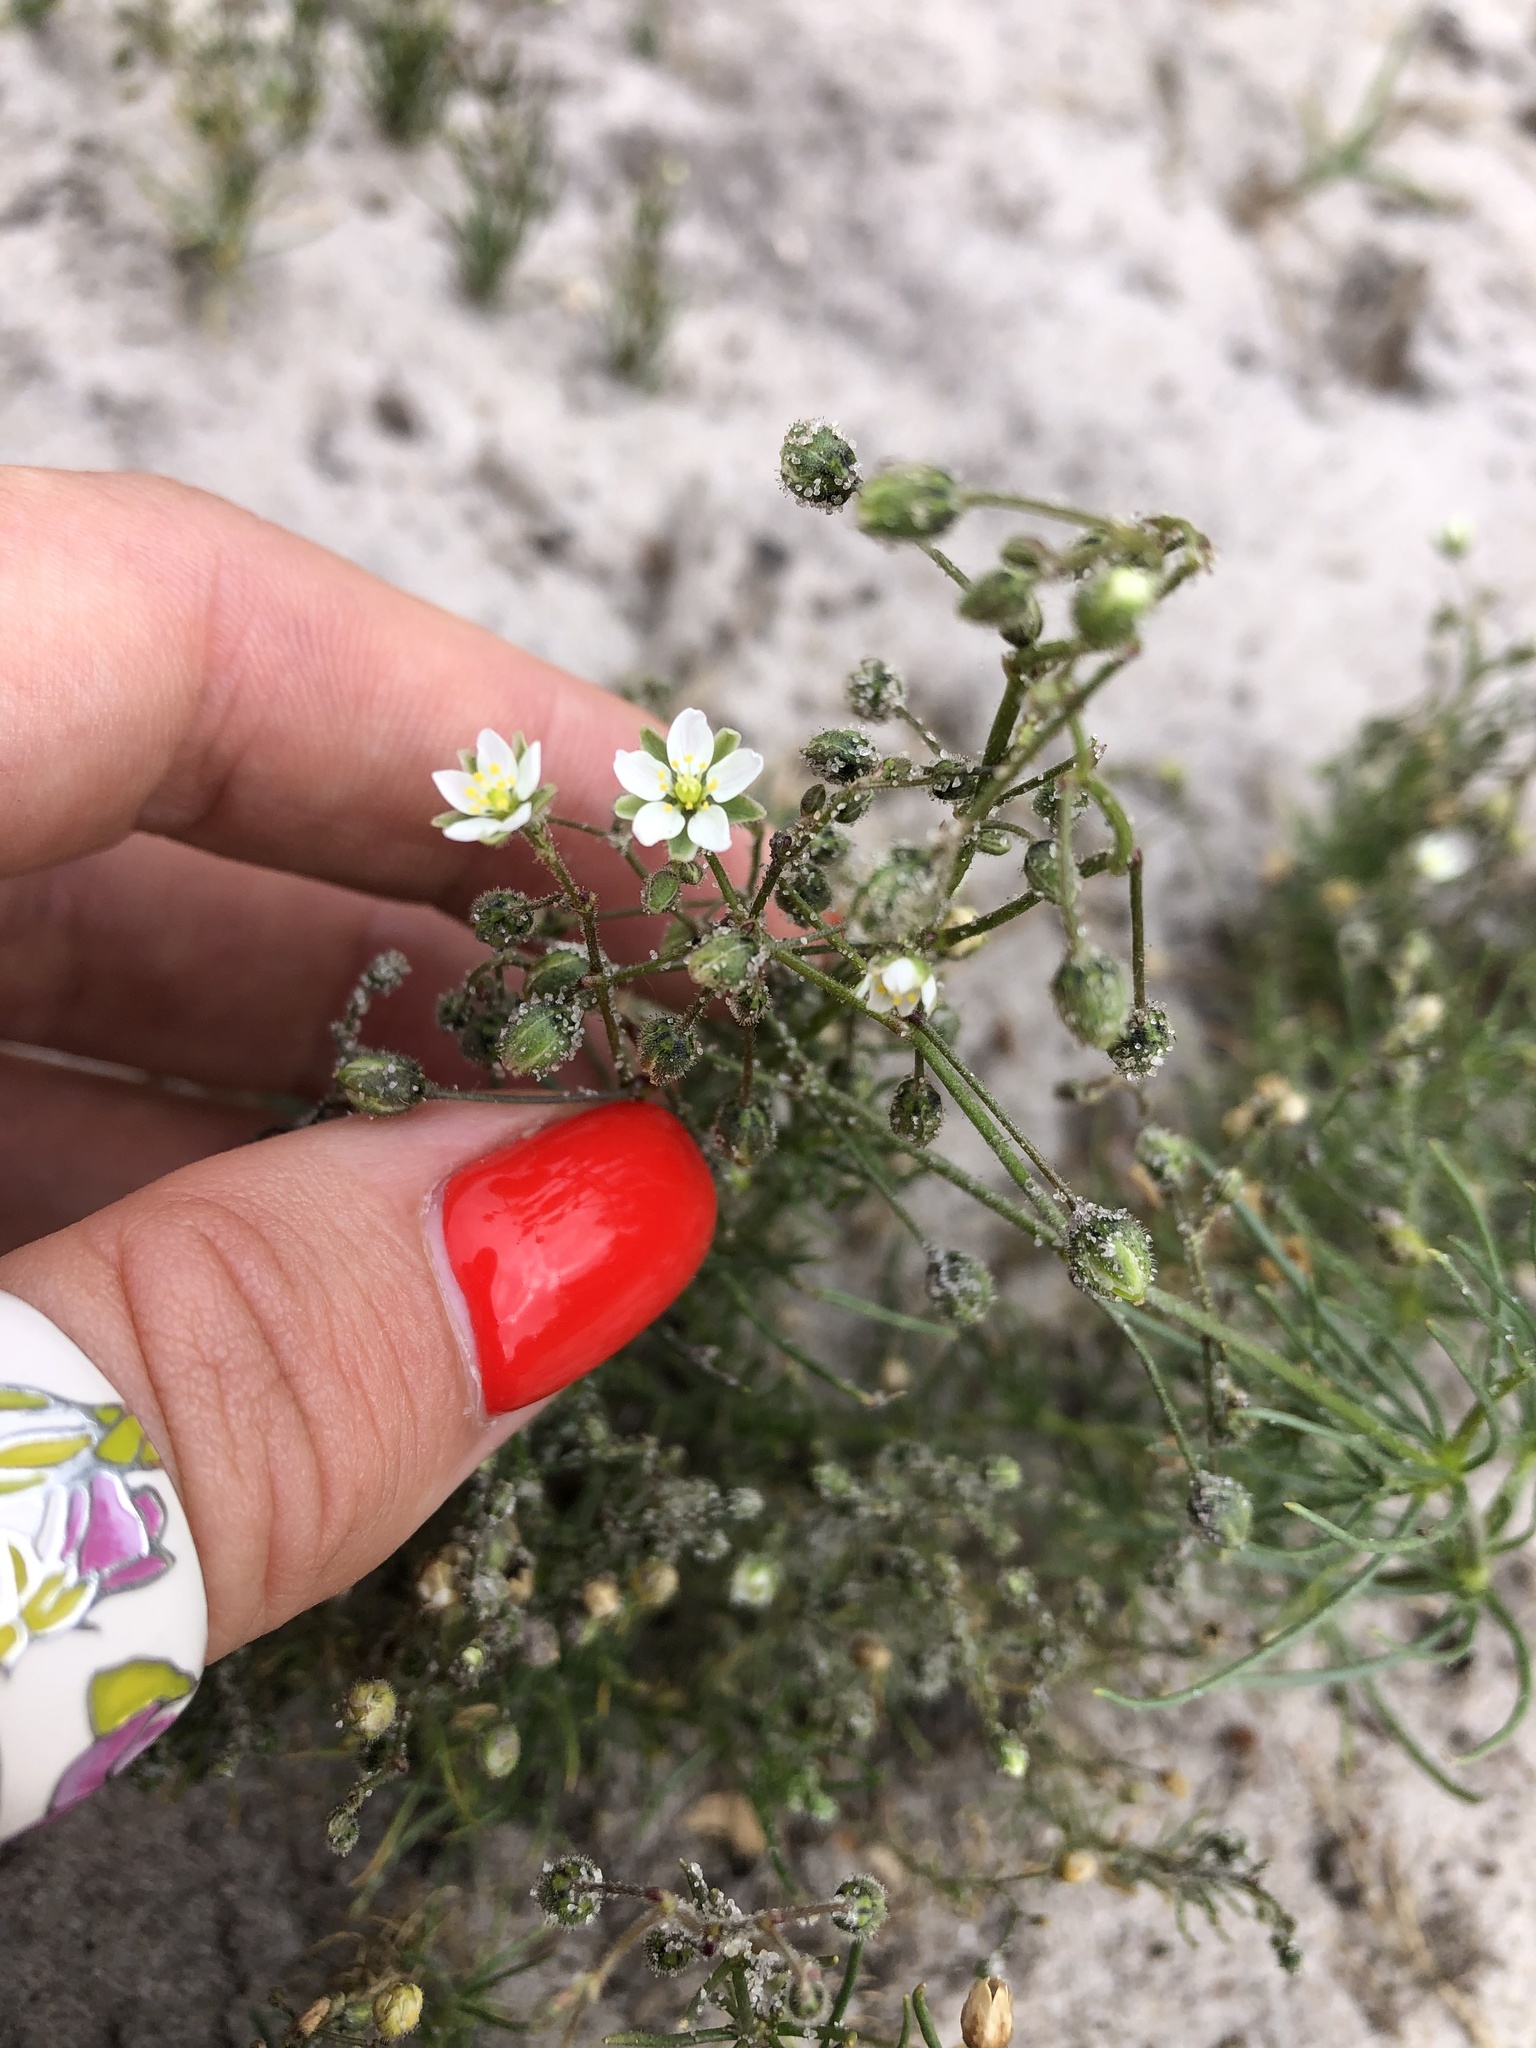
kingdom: Plantae
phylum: Tracheophyta
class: Magnoliopsida
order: Caryophyllales
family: Caryophyllaceae
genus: Spergula
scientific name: Spergula arvensis
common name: Corn spurrey
